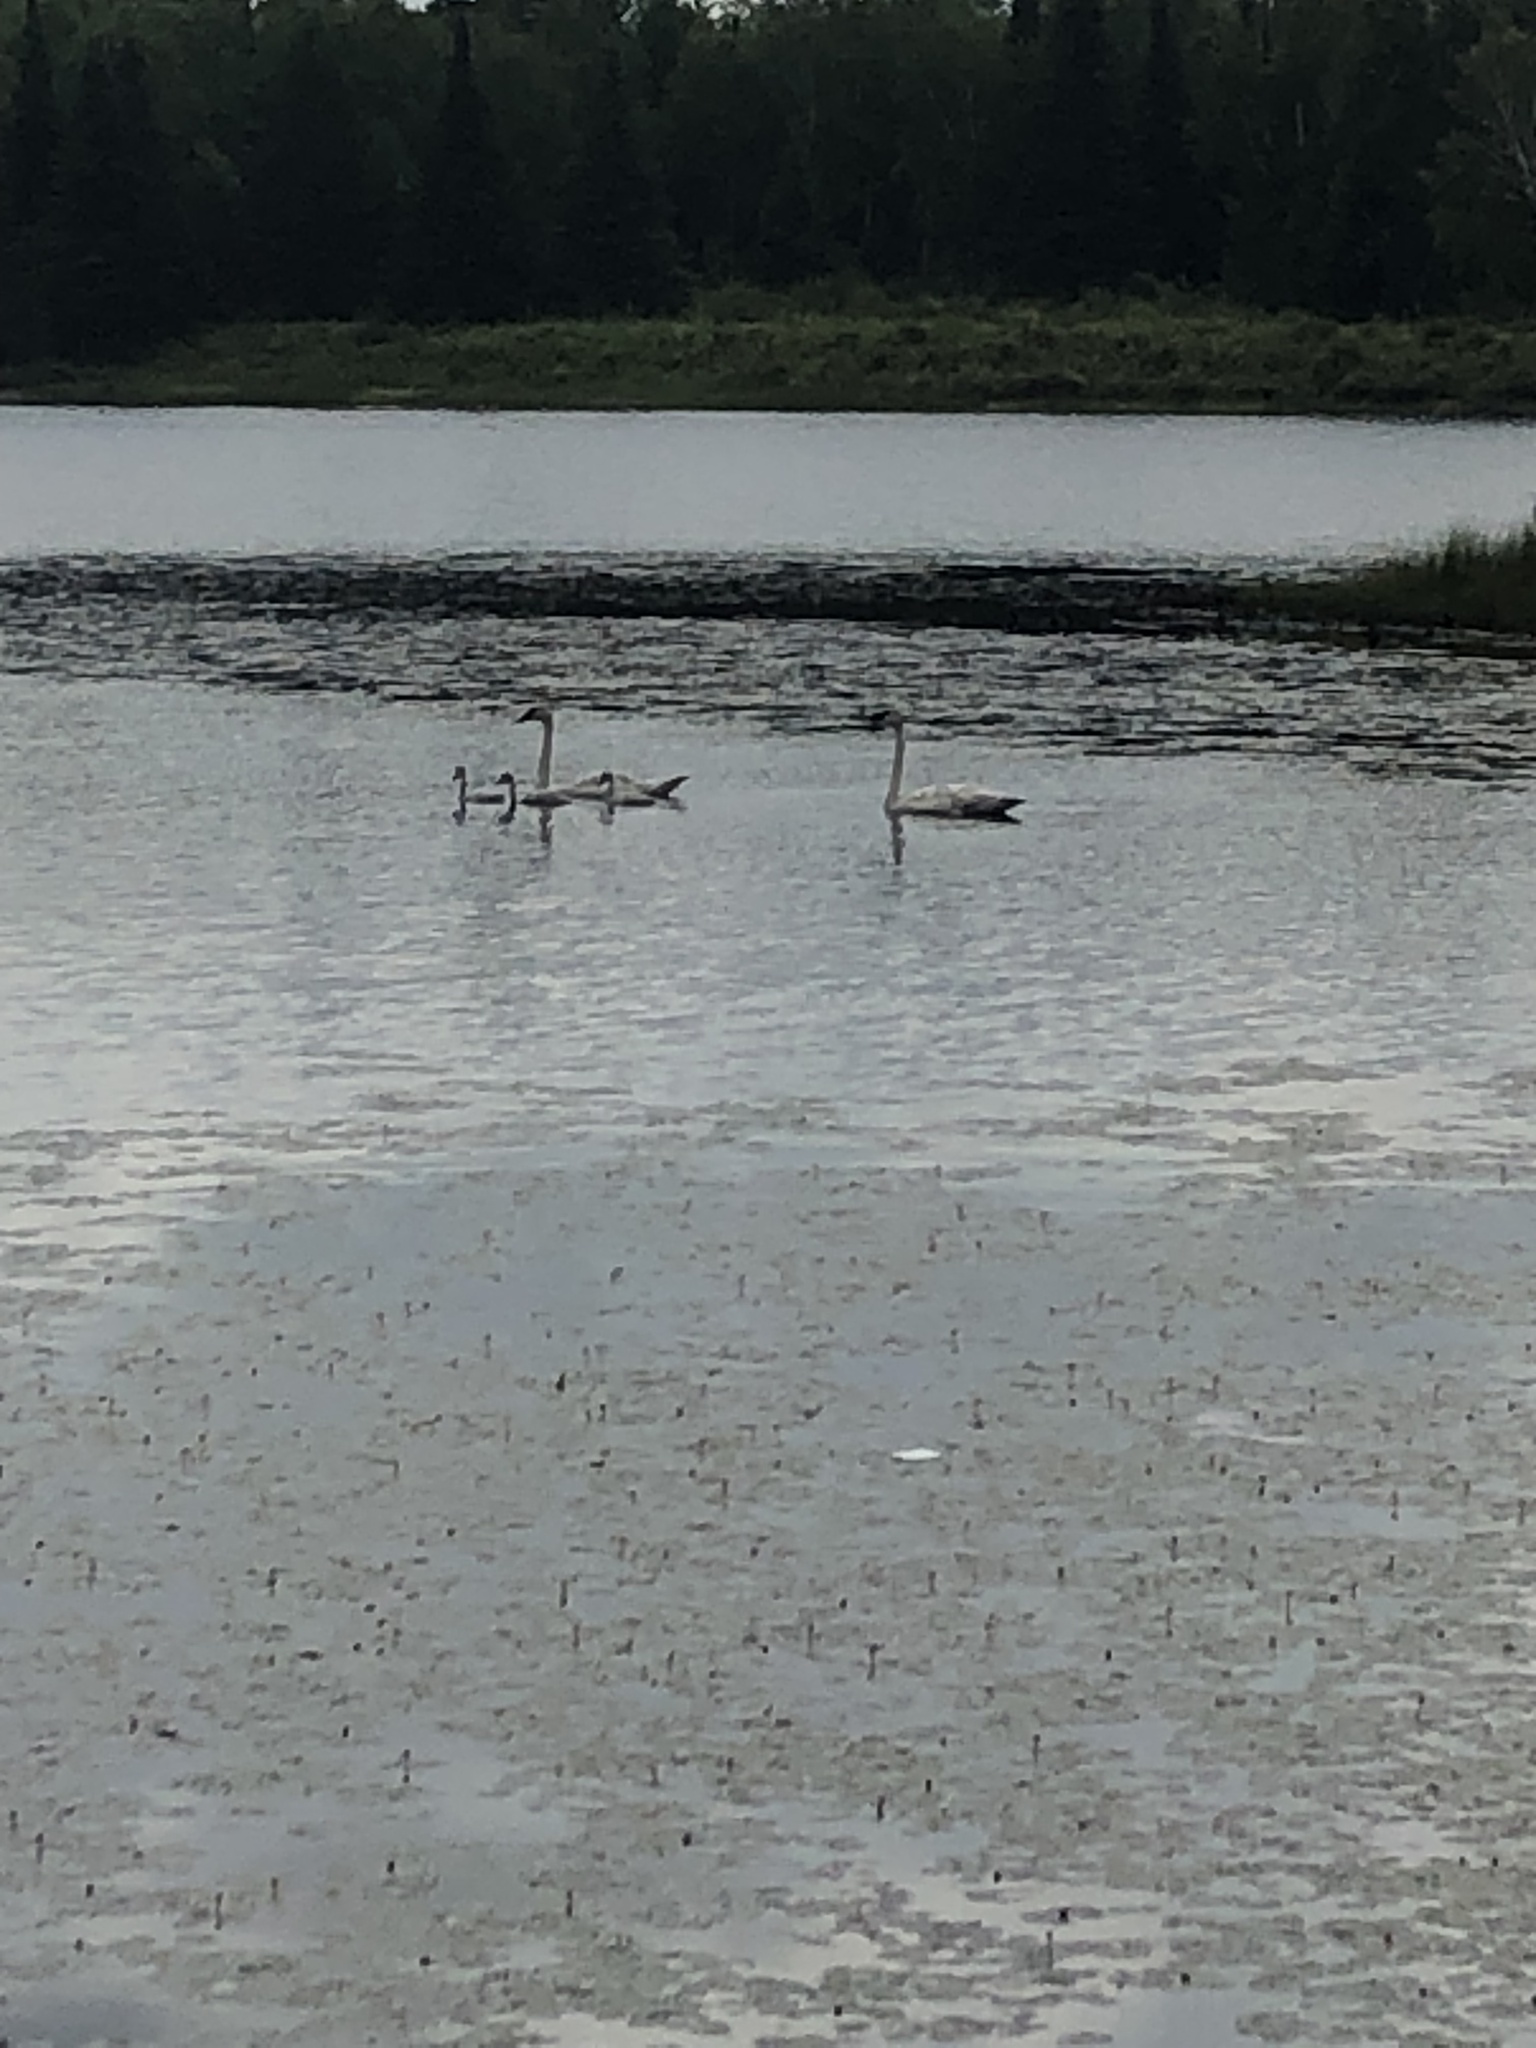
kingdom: Animalia
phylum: Chordata
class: Aves
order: Anseriformes
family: Anatidae
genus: Cygnus
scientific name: Cygnus buccinator
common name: Trumpeter swan
